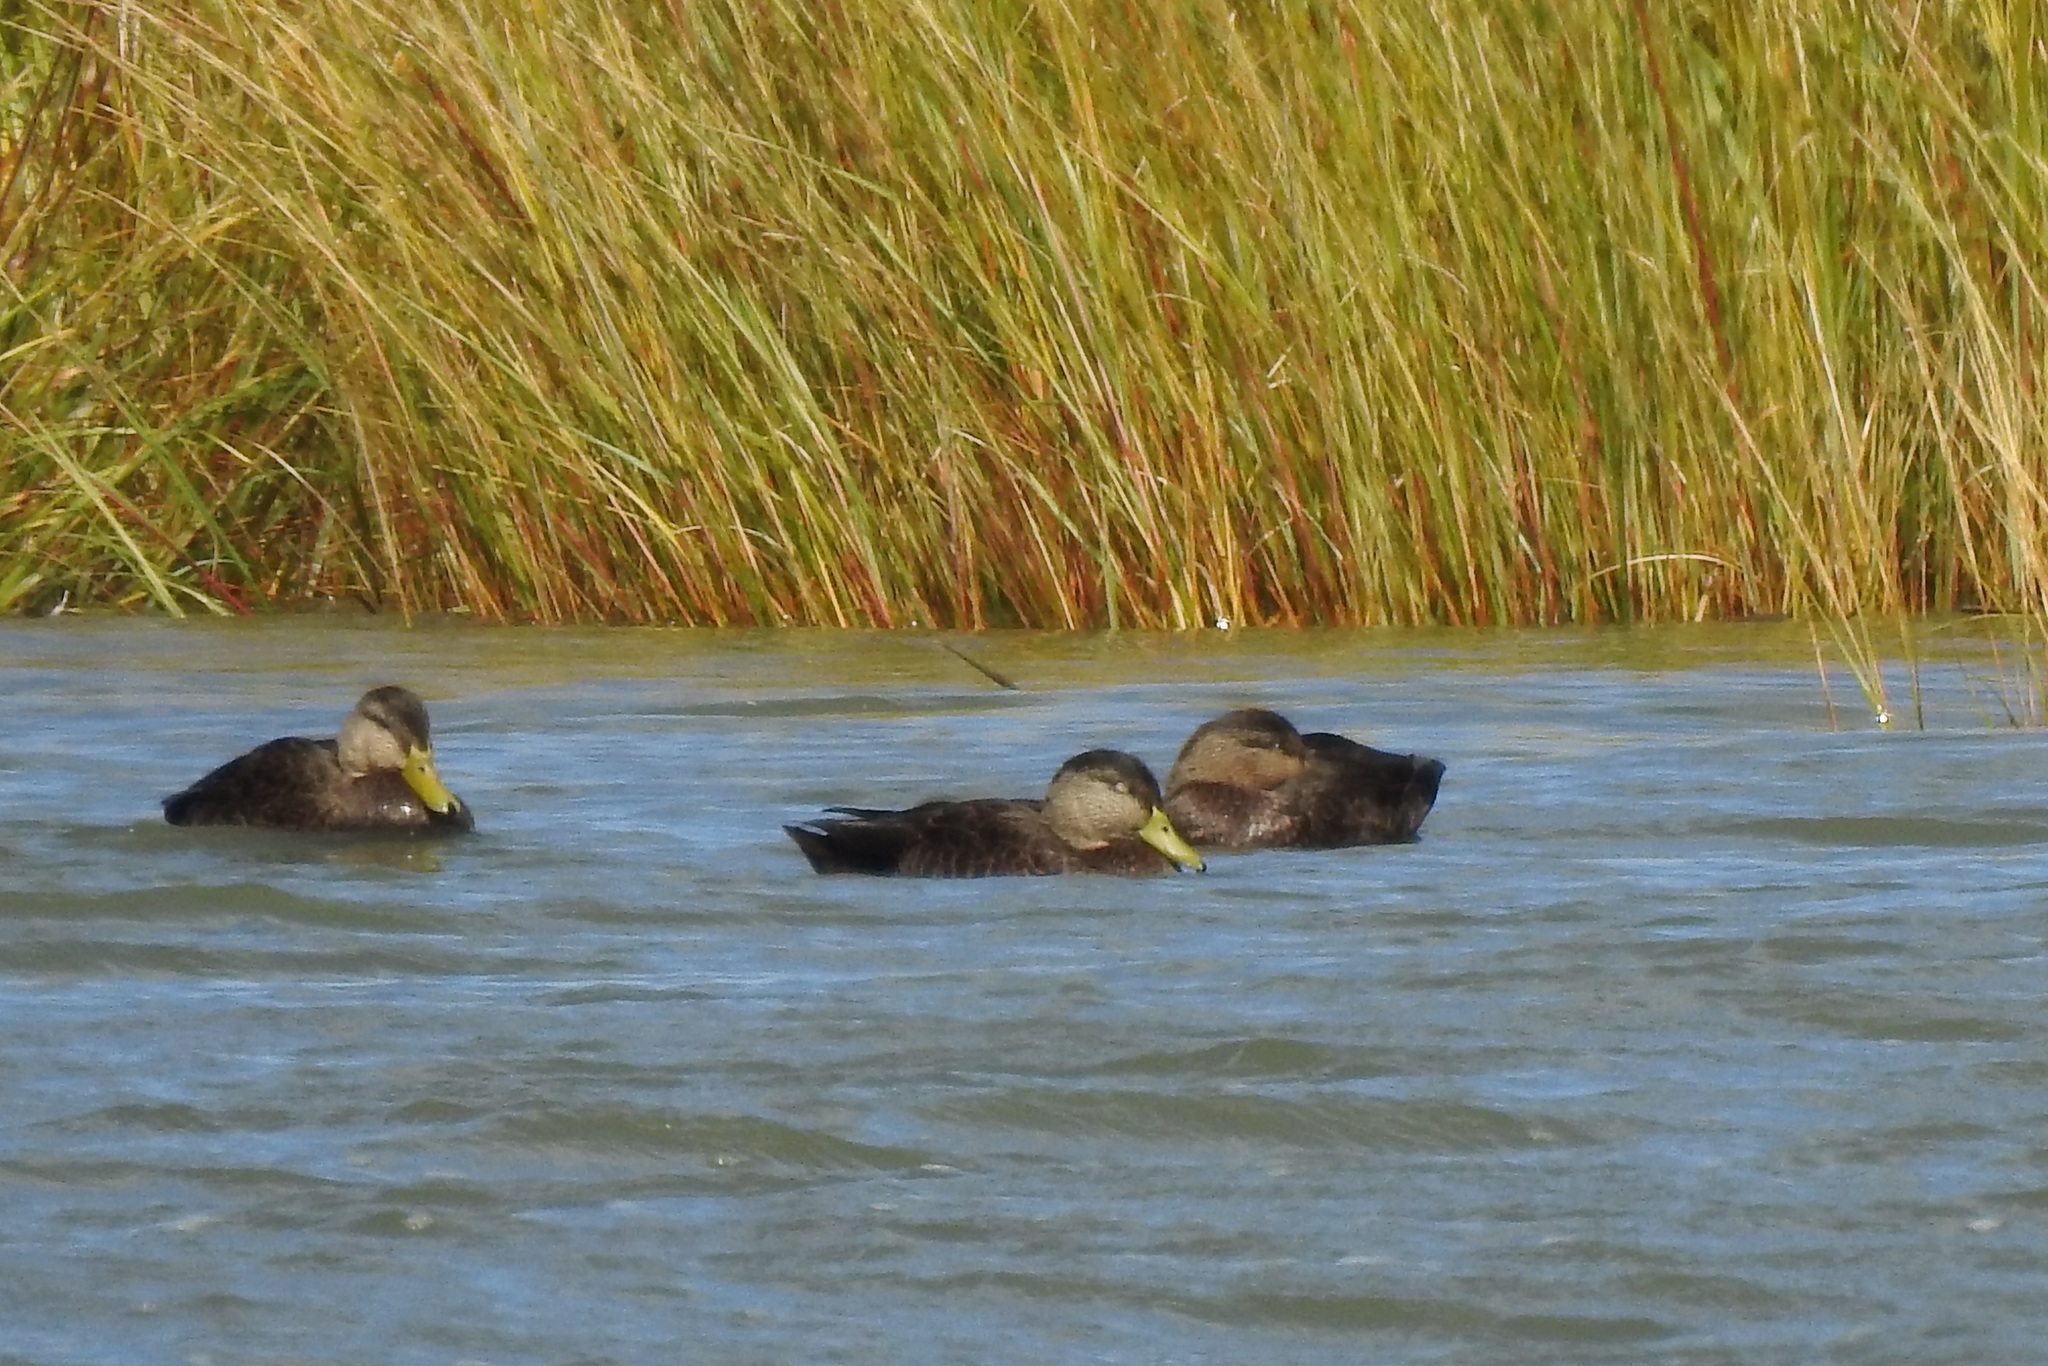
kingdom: Animalia
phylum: Chordata
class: Aves
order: Anseriformes
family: Anatidae
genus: Anas
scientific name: Anas rubripes
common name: American black duck
